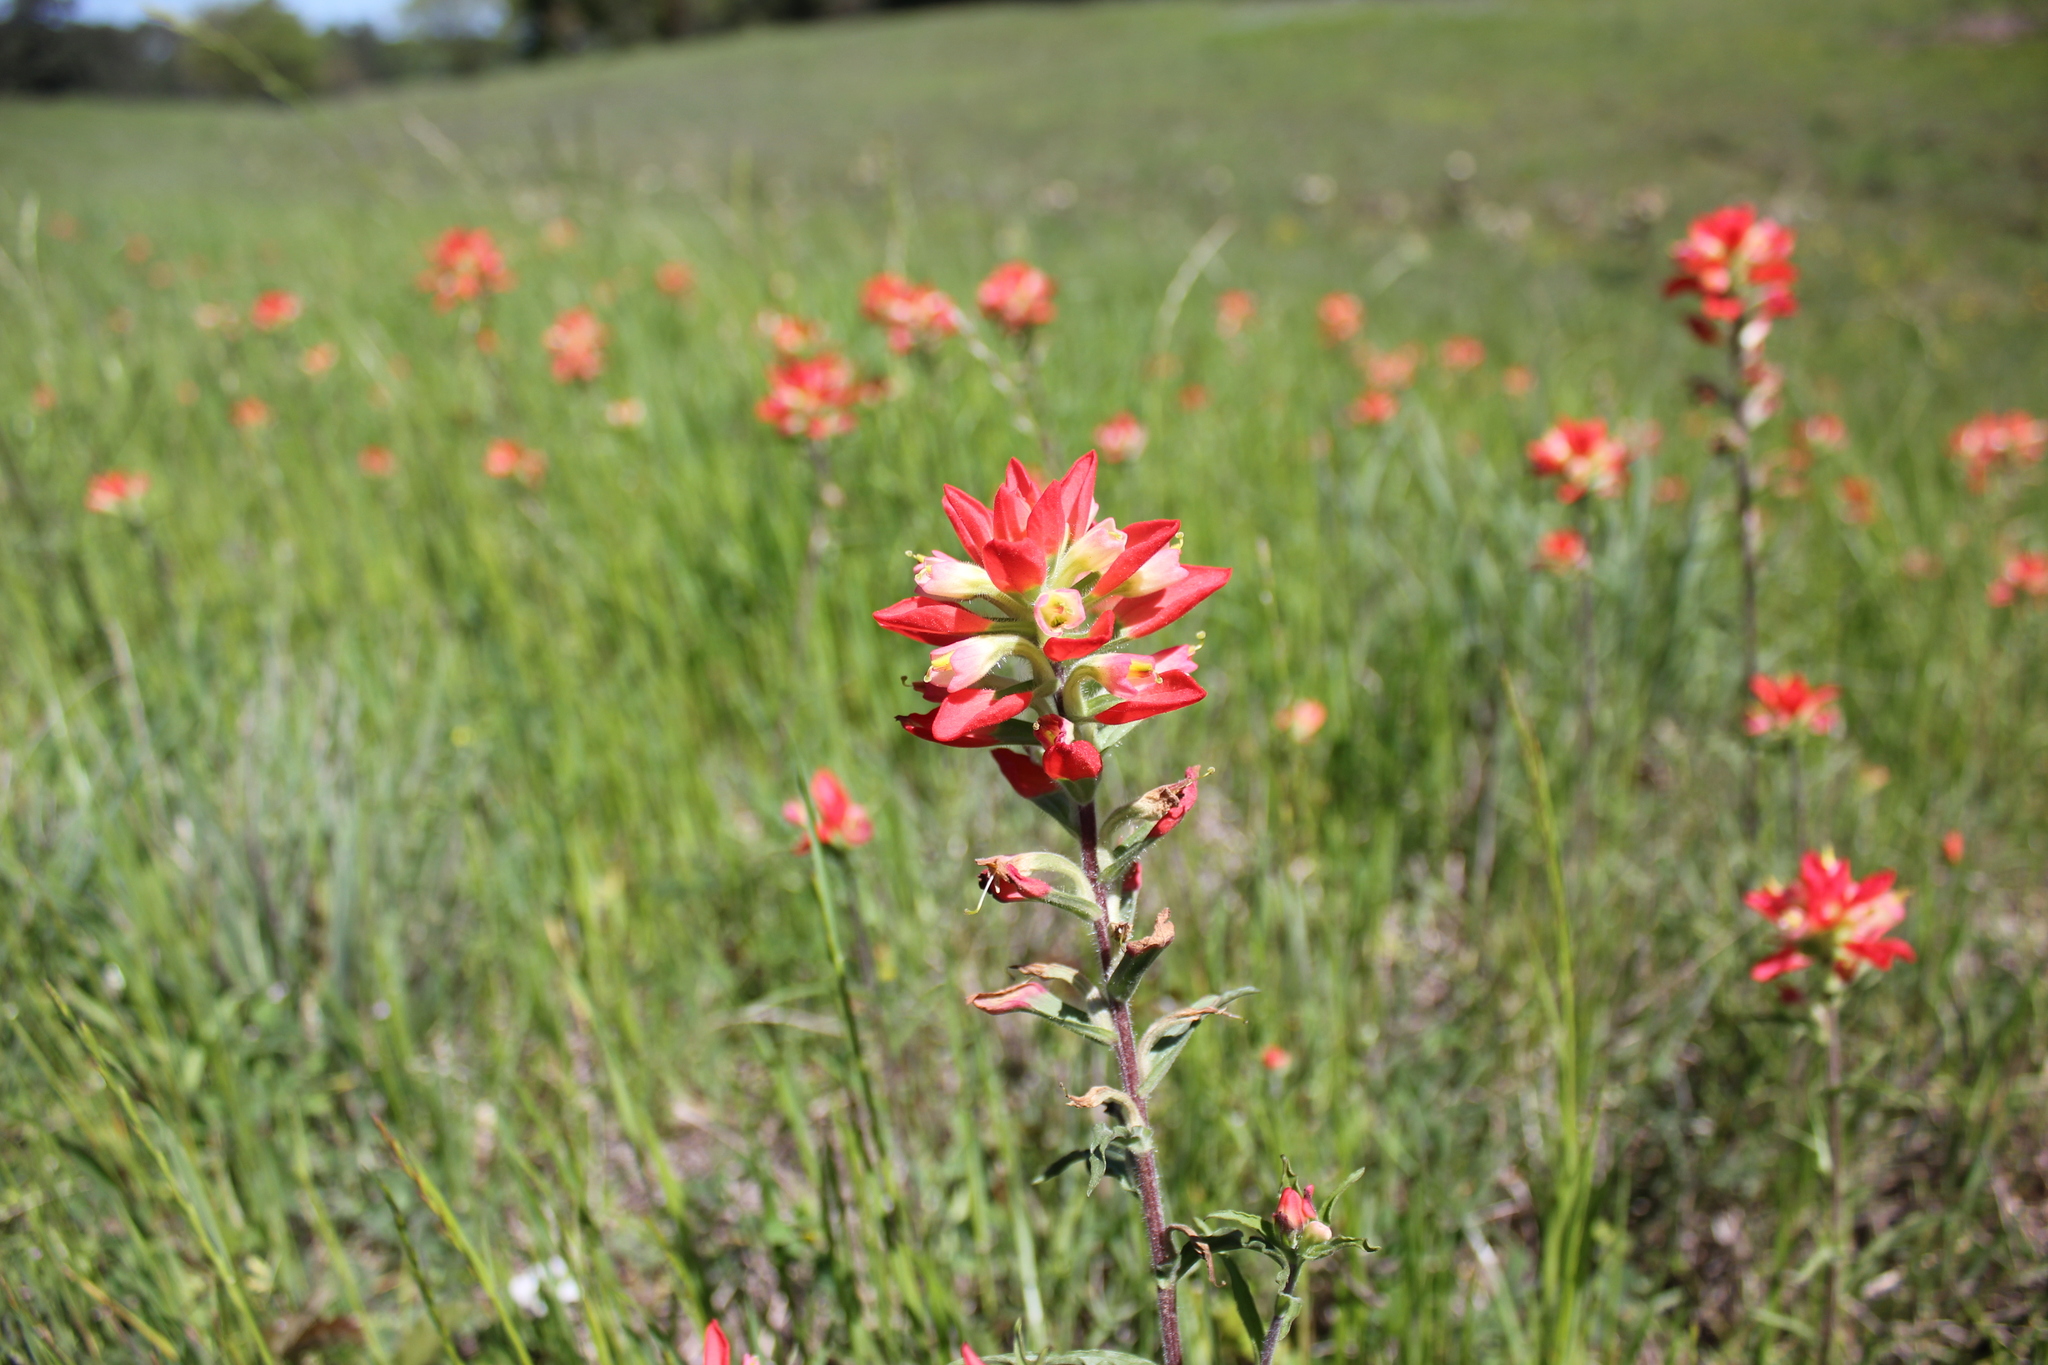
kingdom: Plantae
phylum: Tracheophyta
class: Magnoliopsida
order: Lamiales
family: Orobanchaceae
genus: Castilleja
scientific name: Castilleja indivisa
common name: Texas paintbrush
